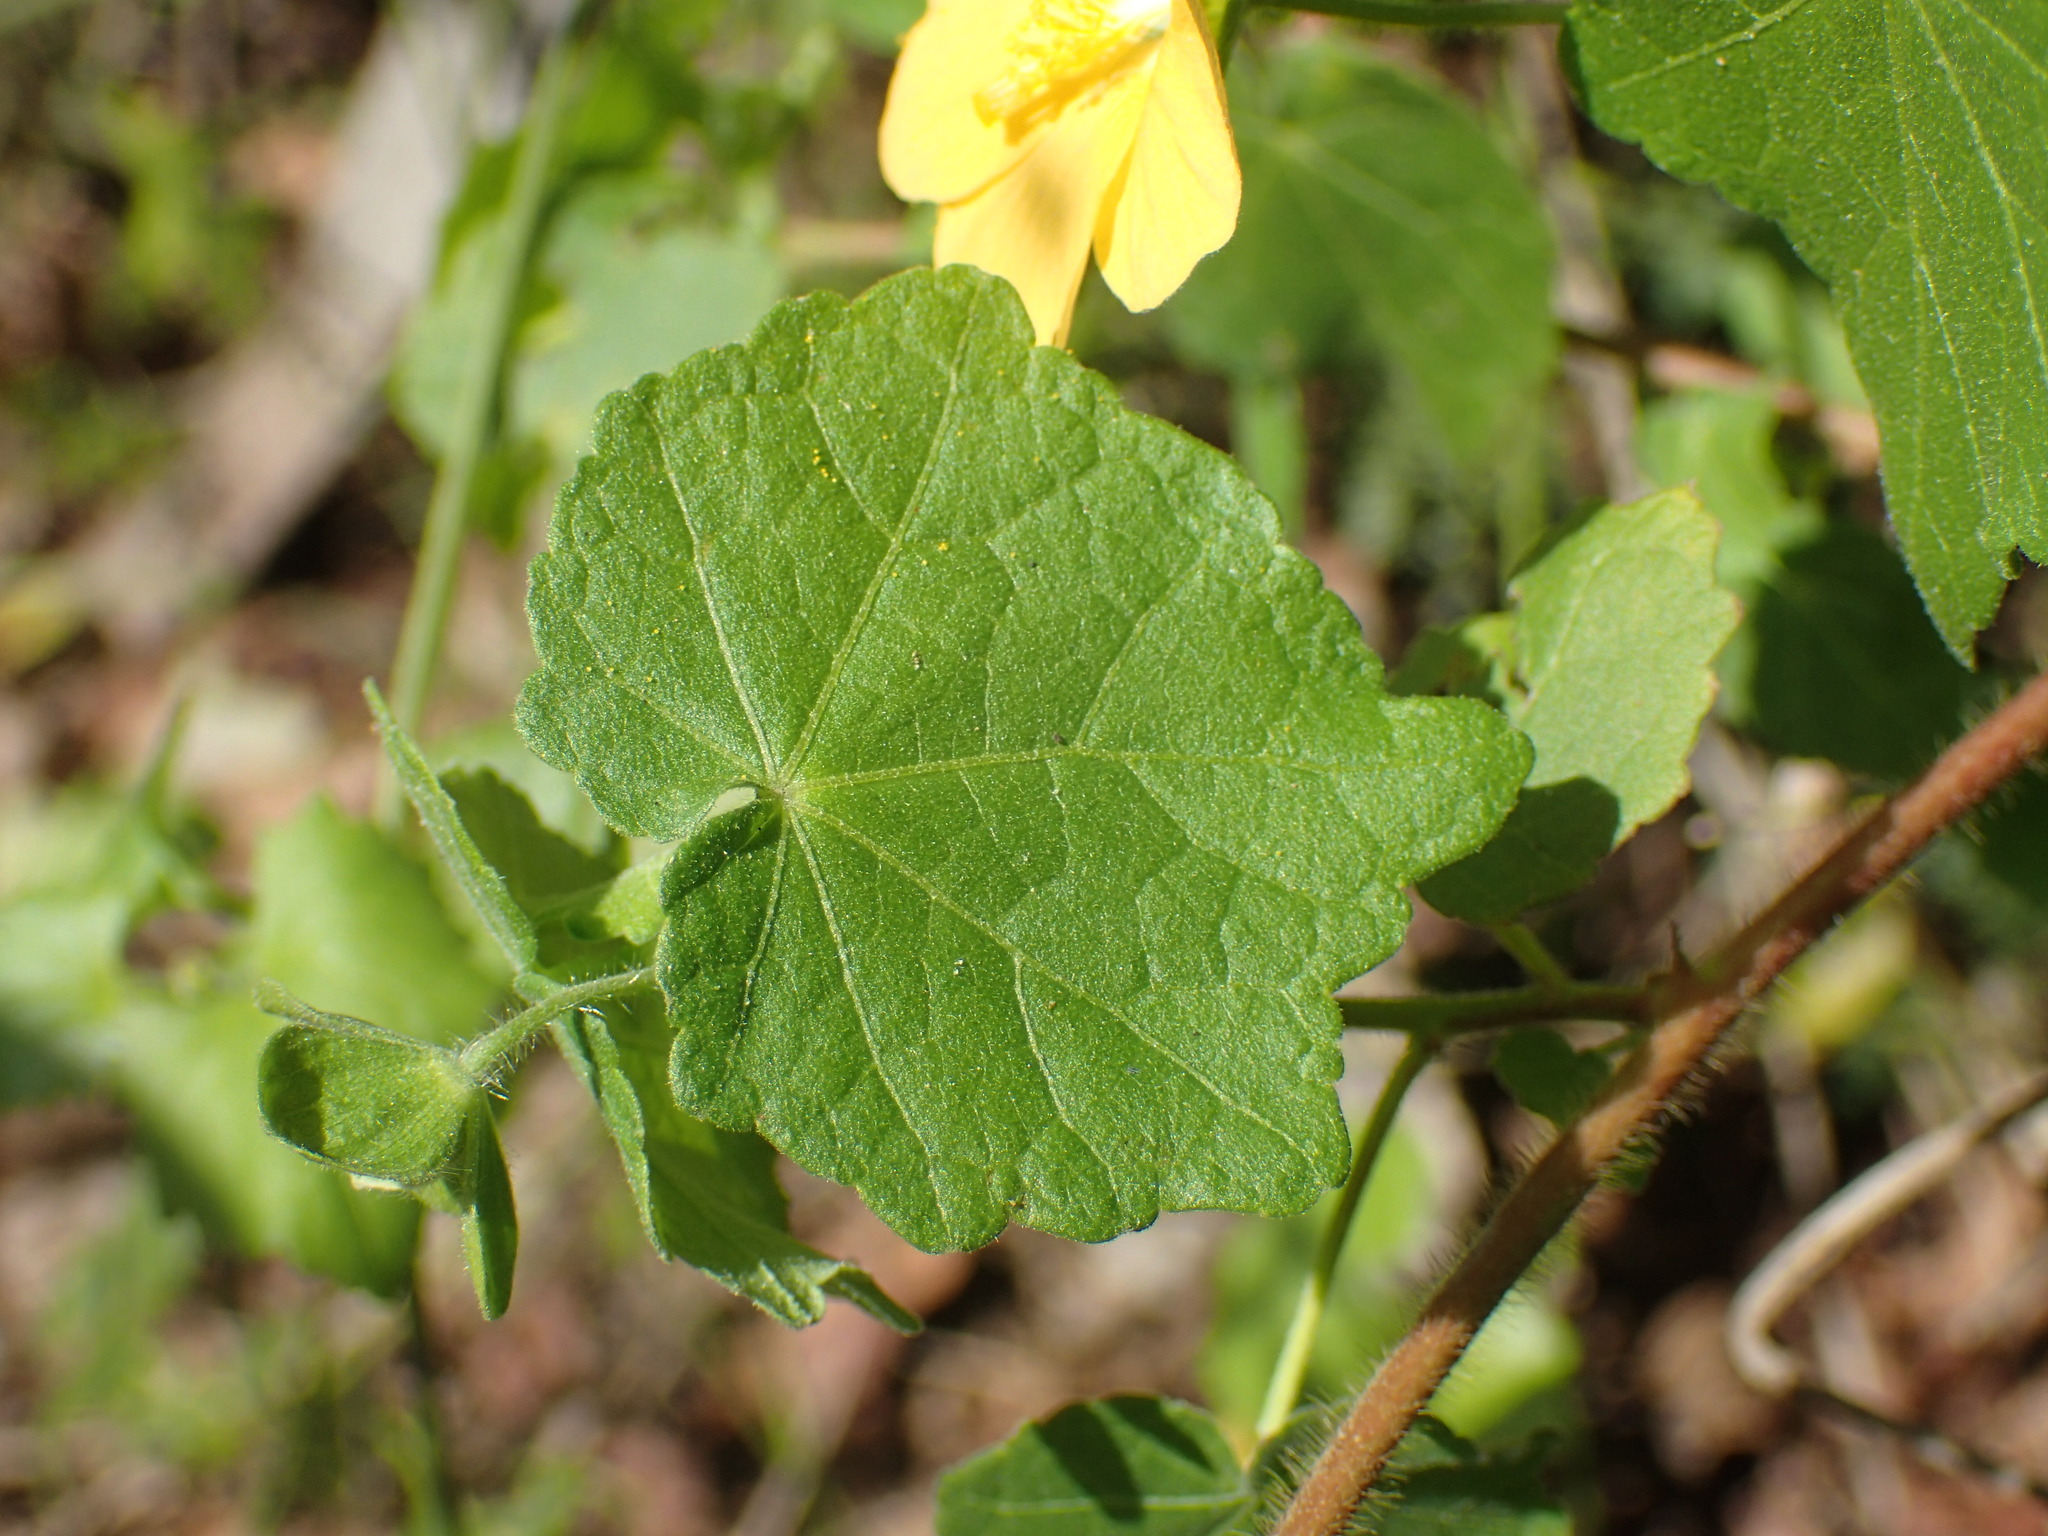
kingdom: Plantae
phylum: Tracheophyta
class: Magnoliopsida
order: Malvales
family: Malvaceae
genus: Abutilon
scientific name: Abutilon sonneratianum
